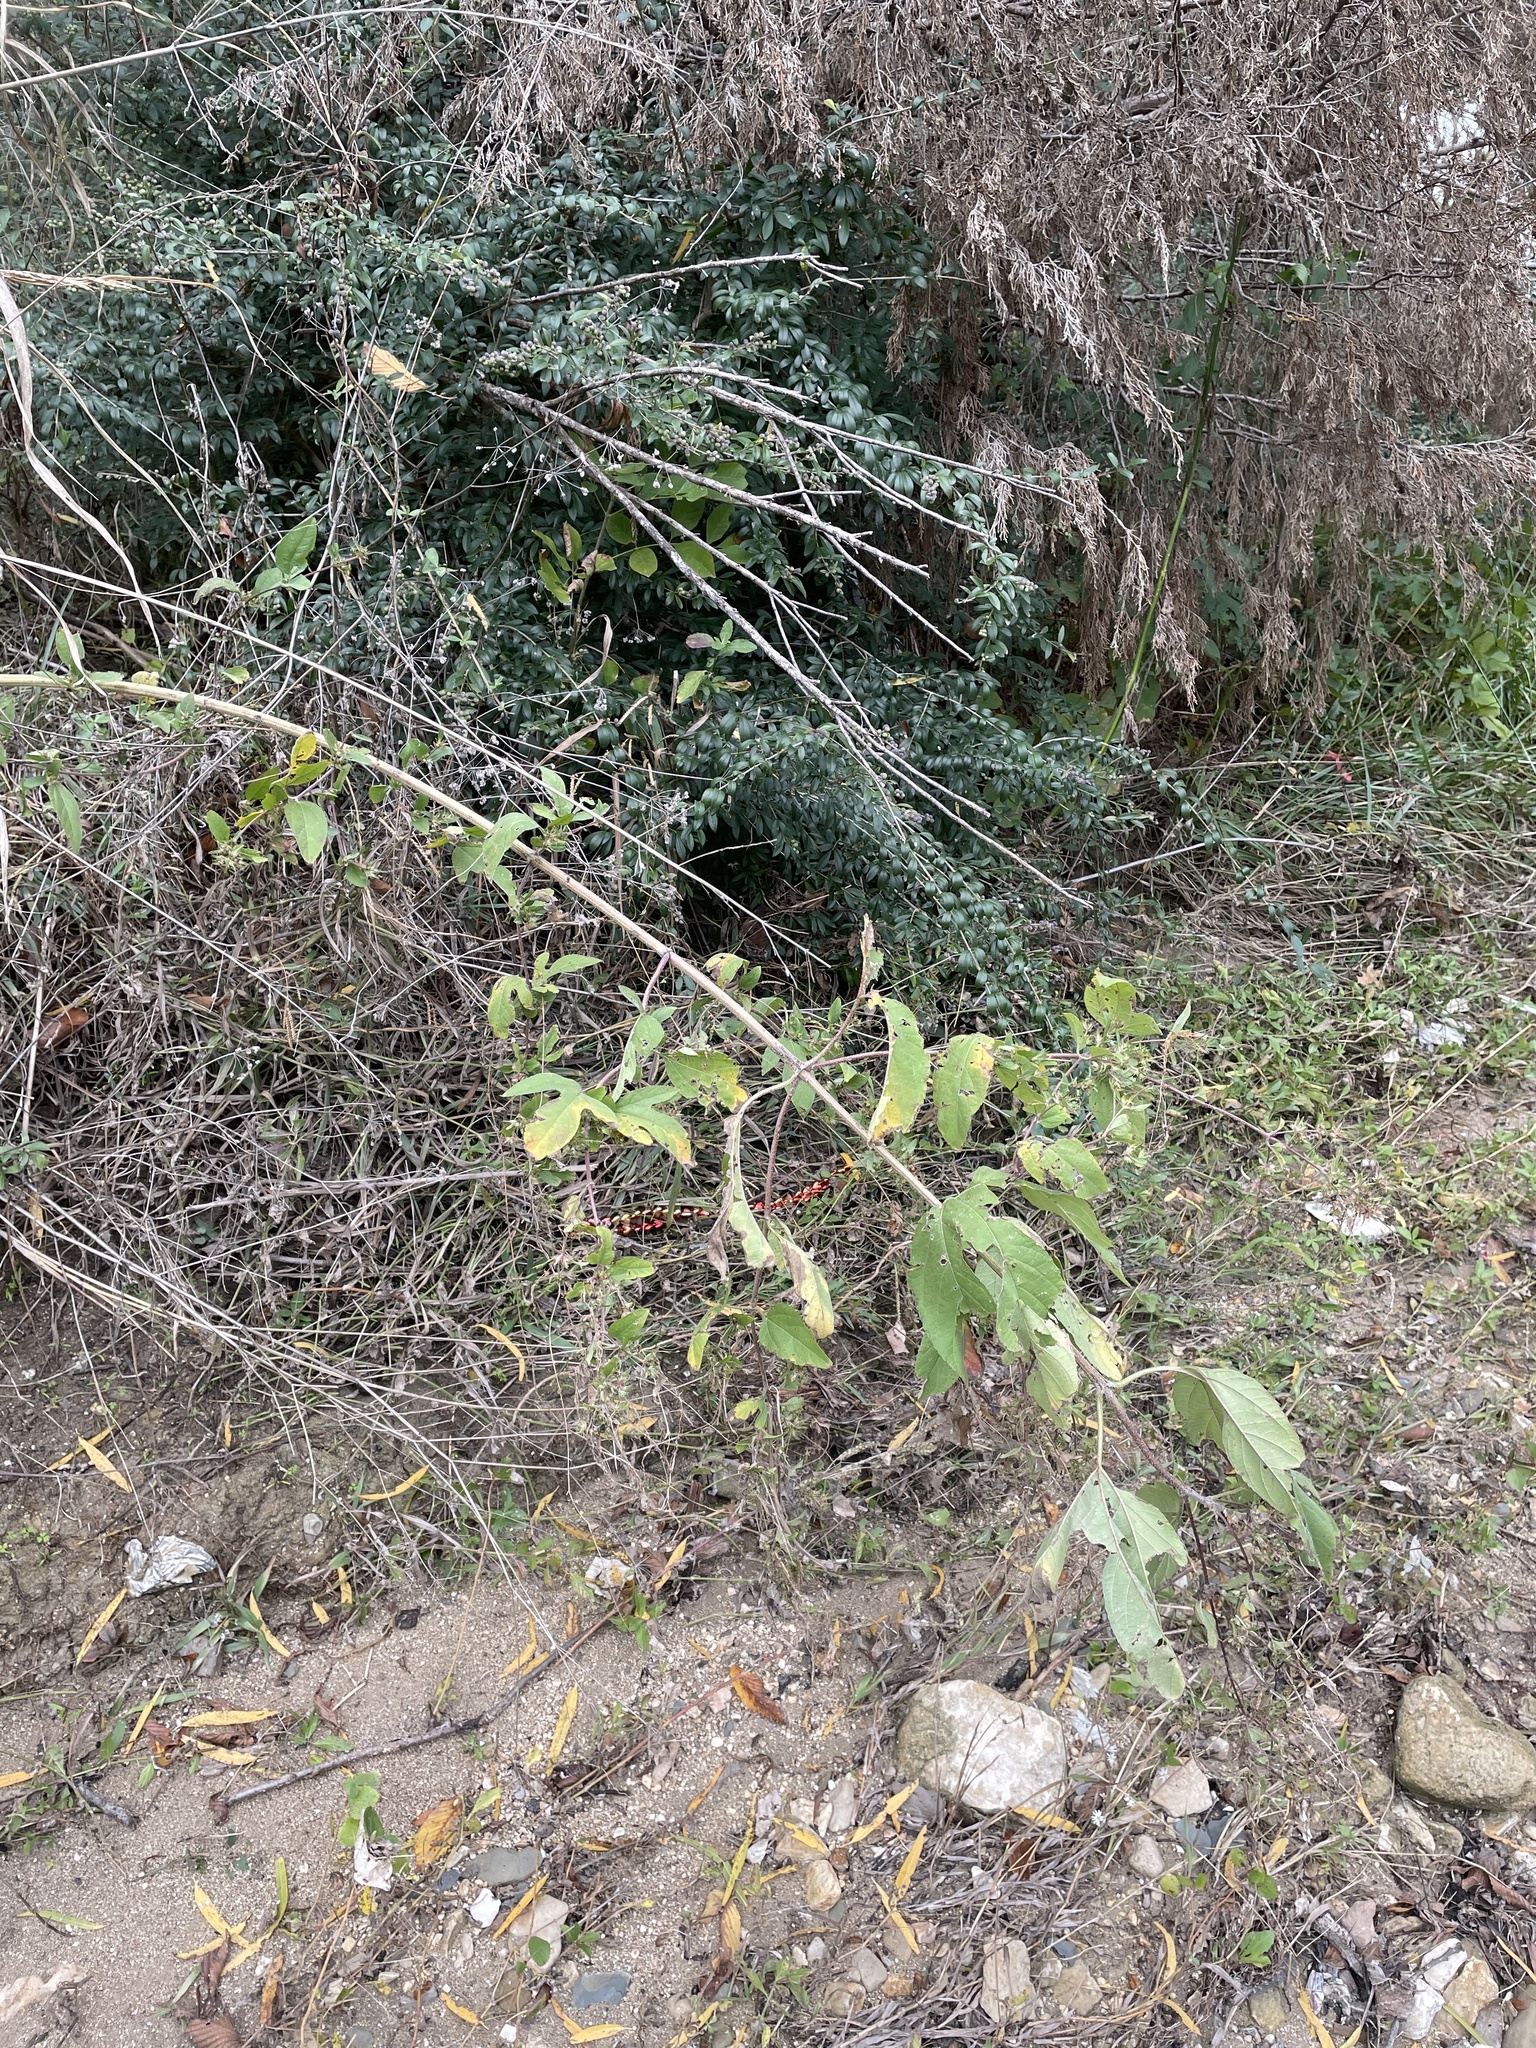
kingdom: Plantae
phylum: Tracheophyta
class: Magnoliopsida
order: Asterales
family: Asteraceae
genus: Ambrosia
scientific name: Ambrosia trifida
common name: Giant ragweed
